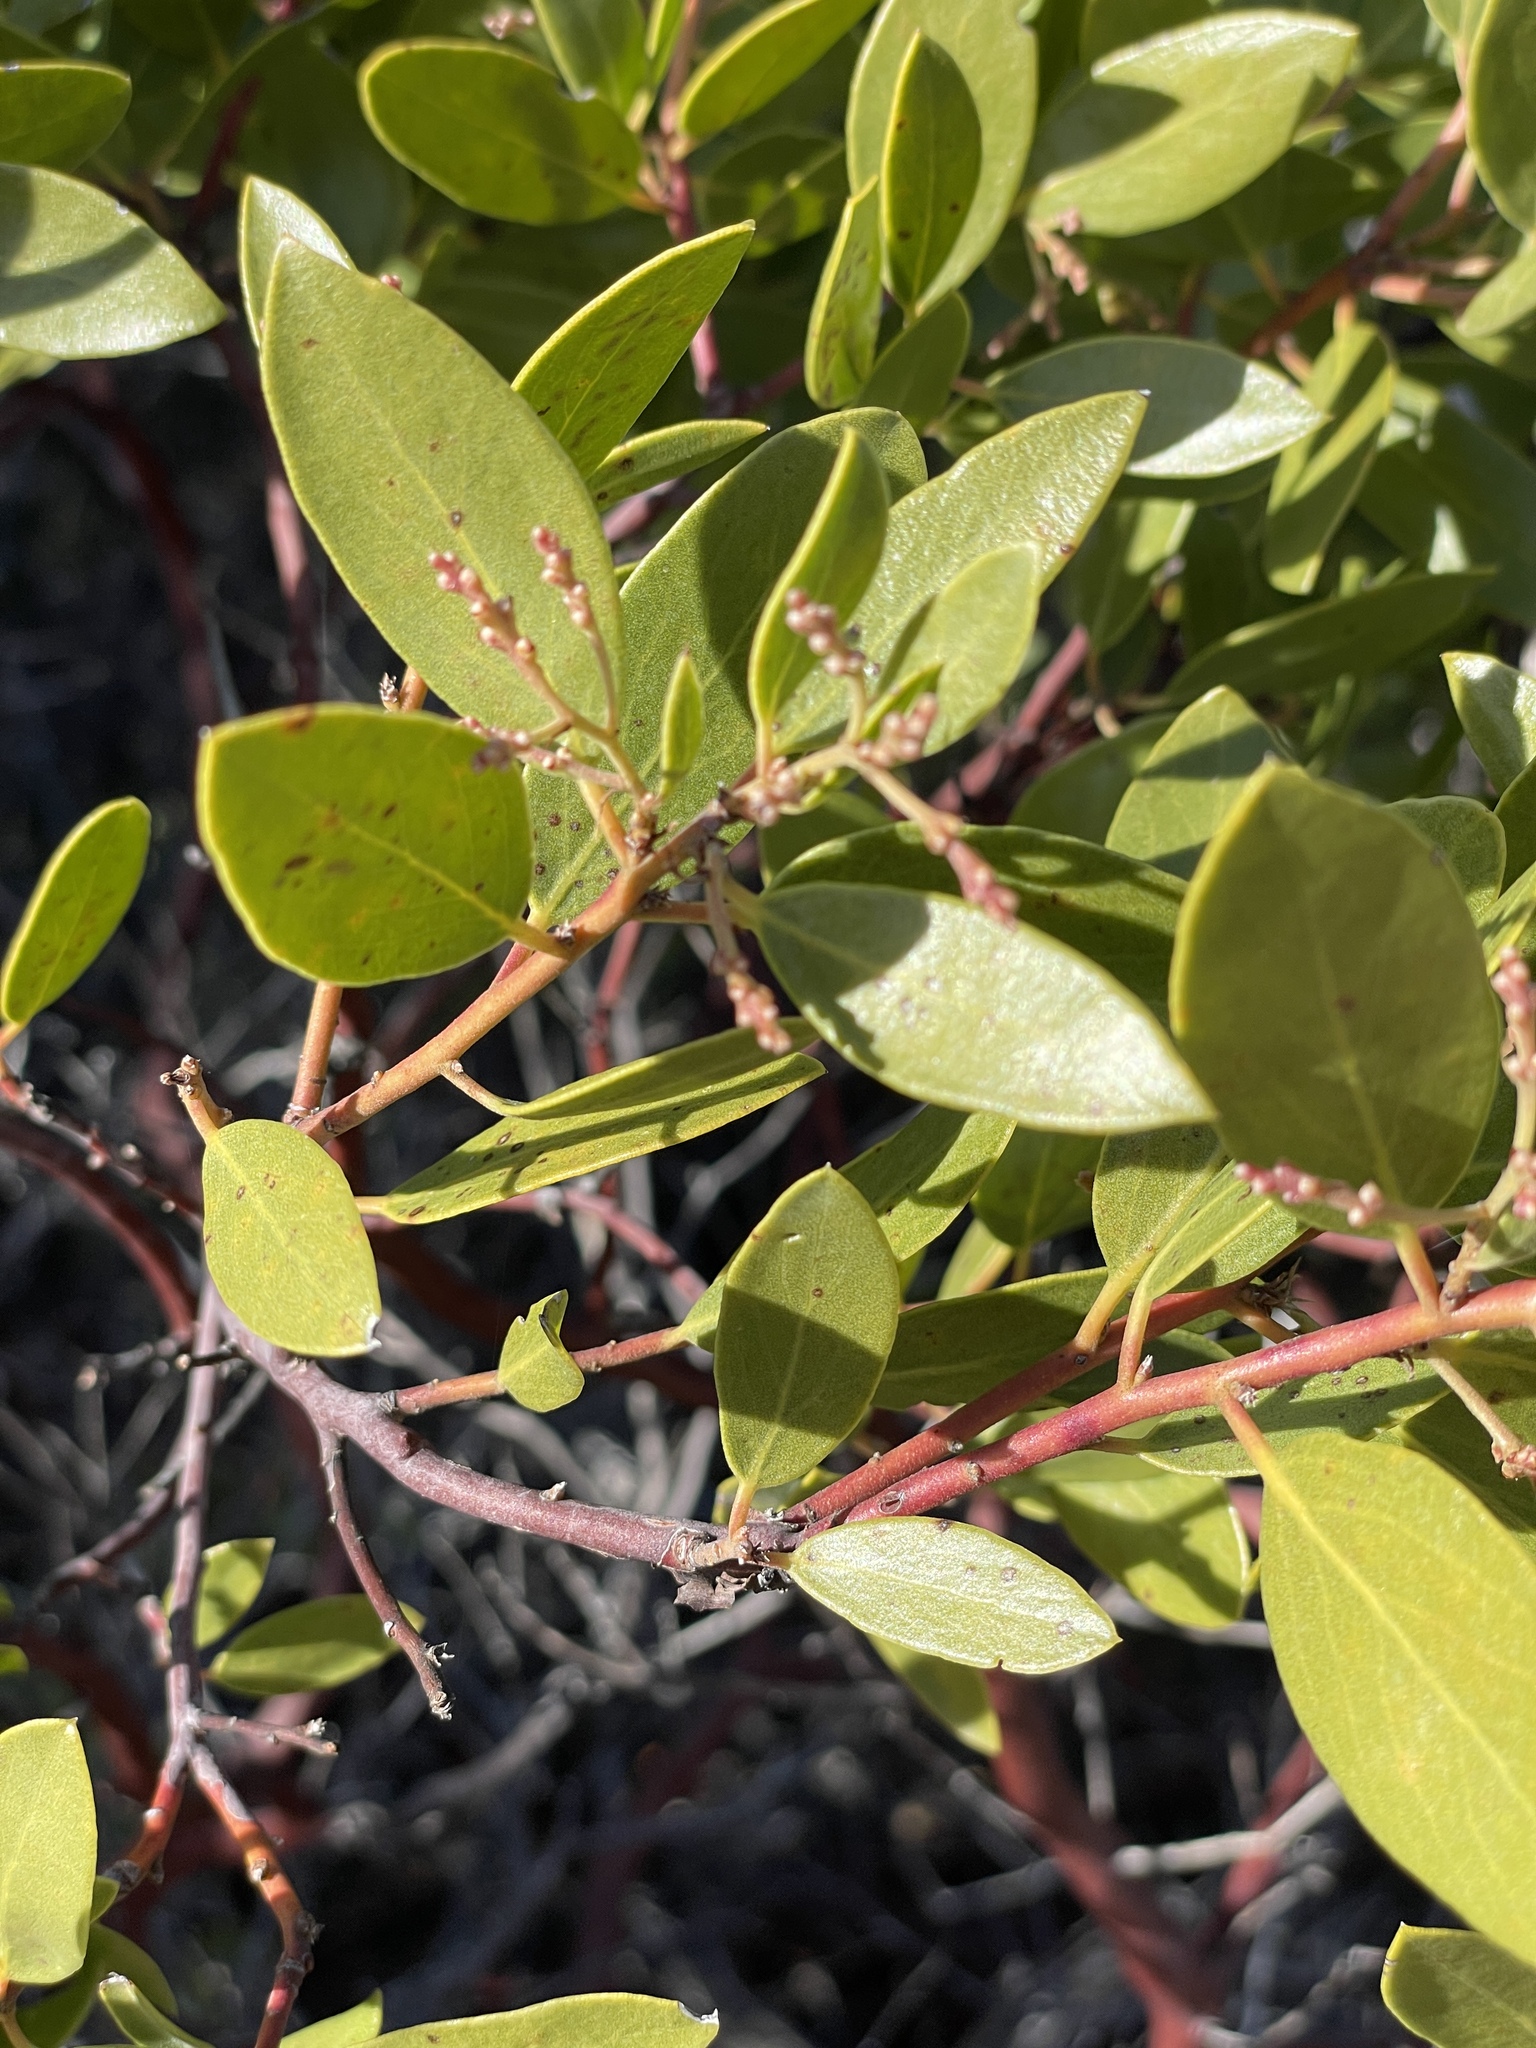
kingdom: Plantae
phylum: Tracheophyta
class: Magnoliopsida
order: Ericales
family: Ericaceae
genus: Arctostaphylos
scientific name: Arctostaphylos stanfordiana
